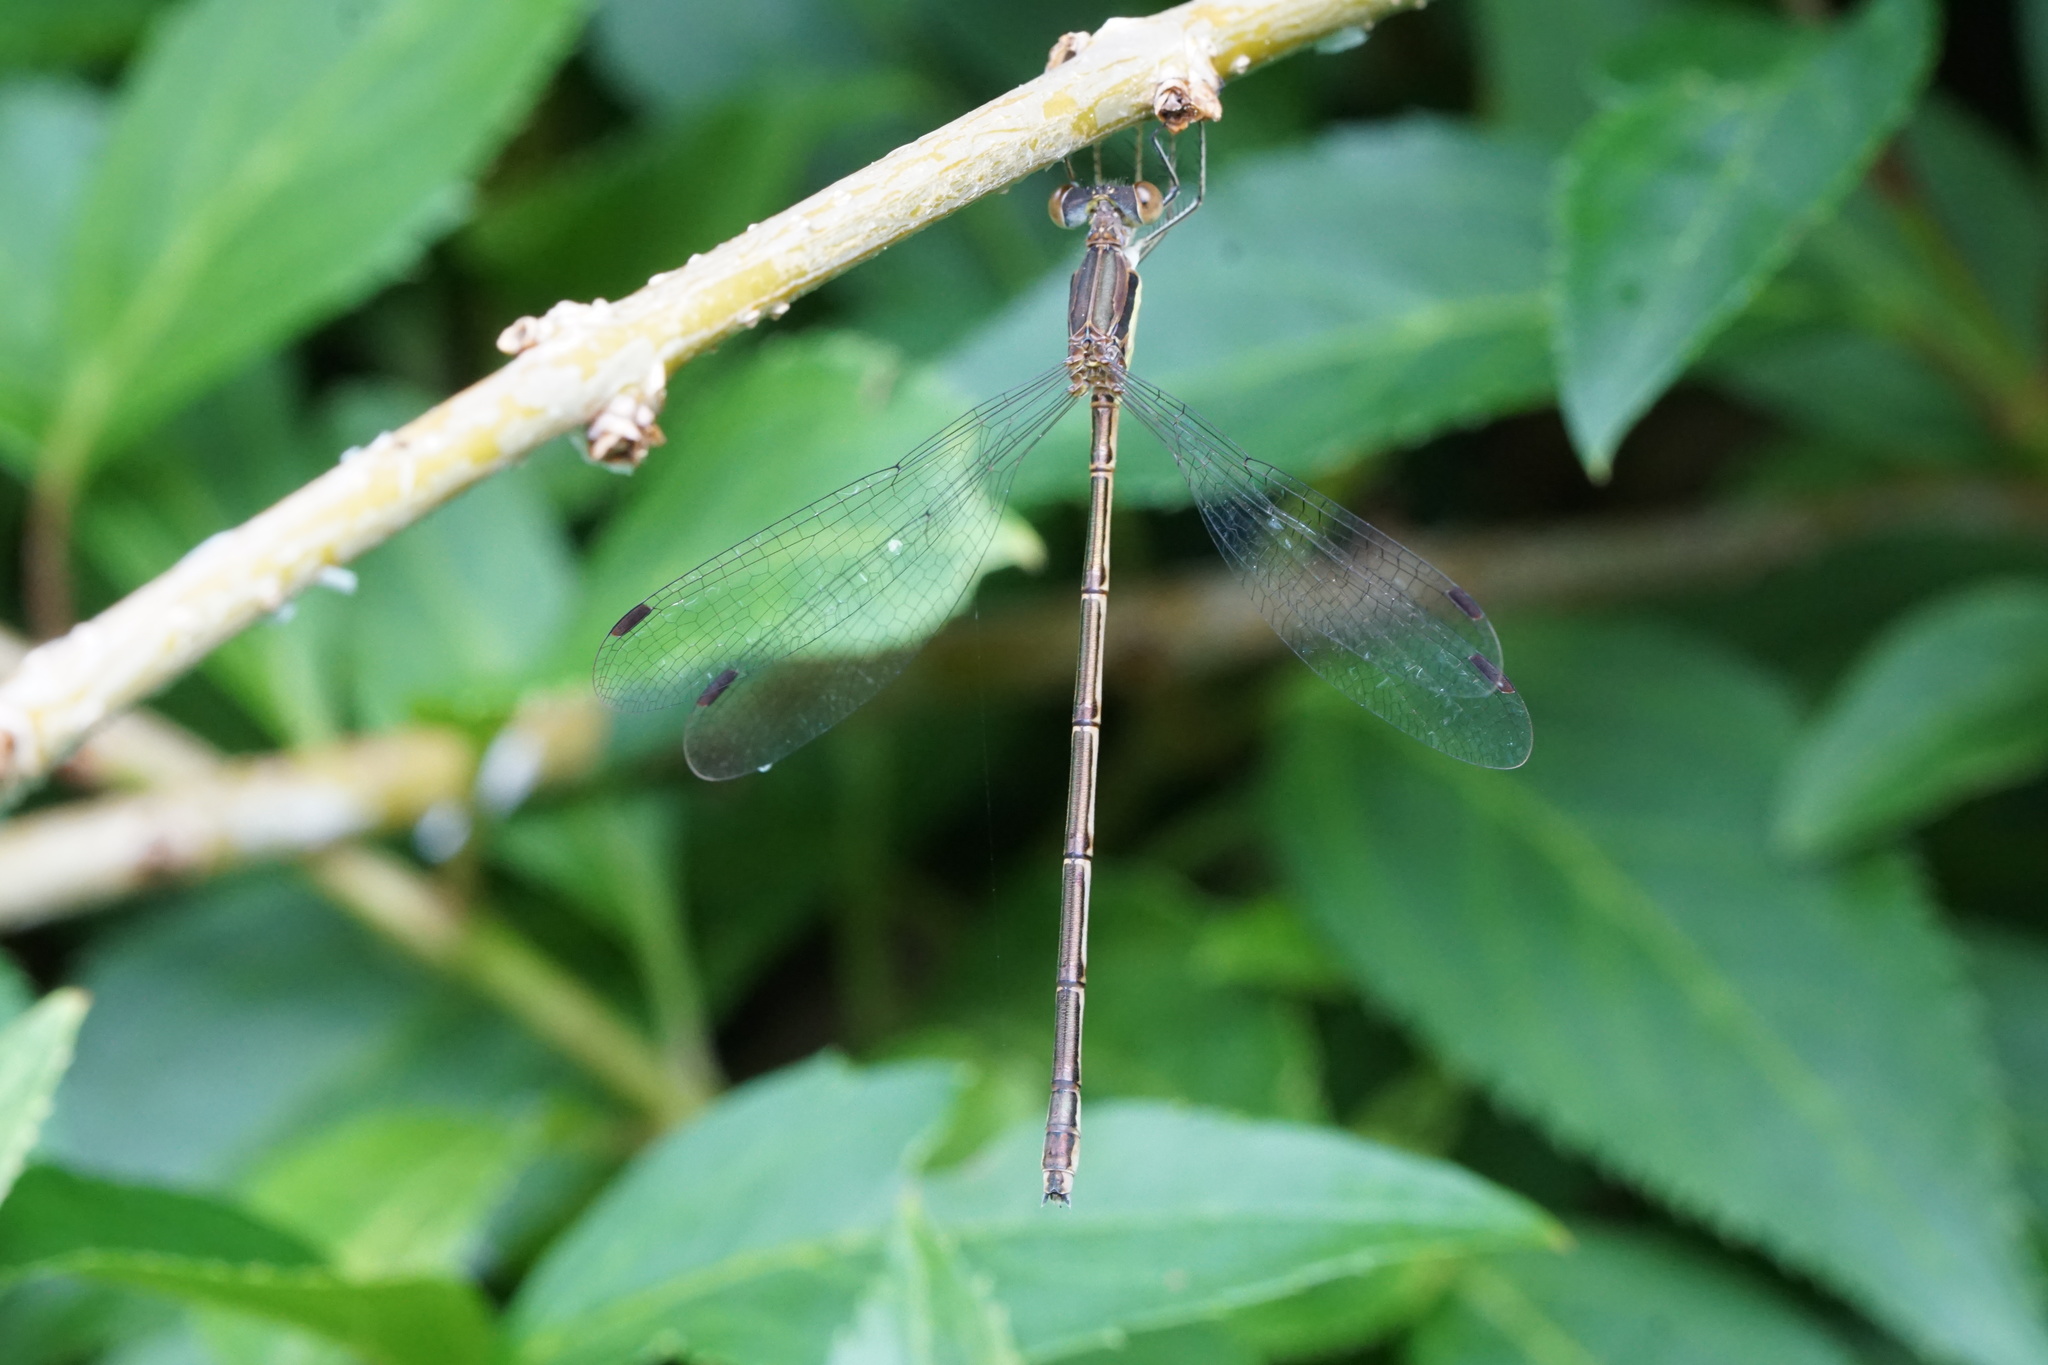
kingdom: Animalia
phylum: Arthropoda
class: Insecta
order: Odonata
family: Lestidae
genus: Lestes
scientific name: Lestes rectangularis
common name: Slender spreadwing
